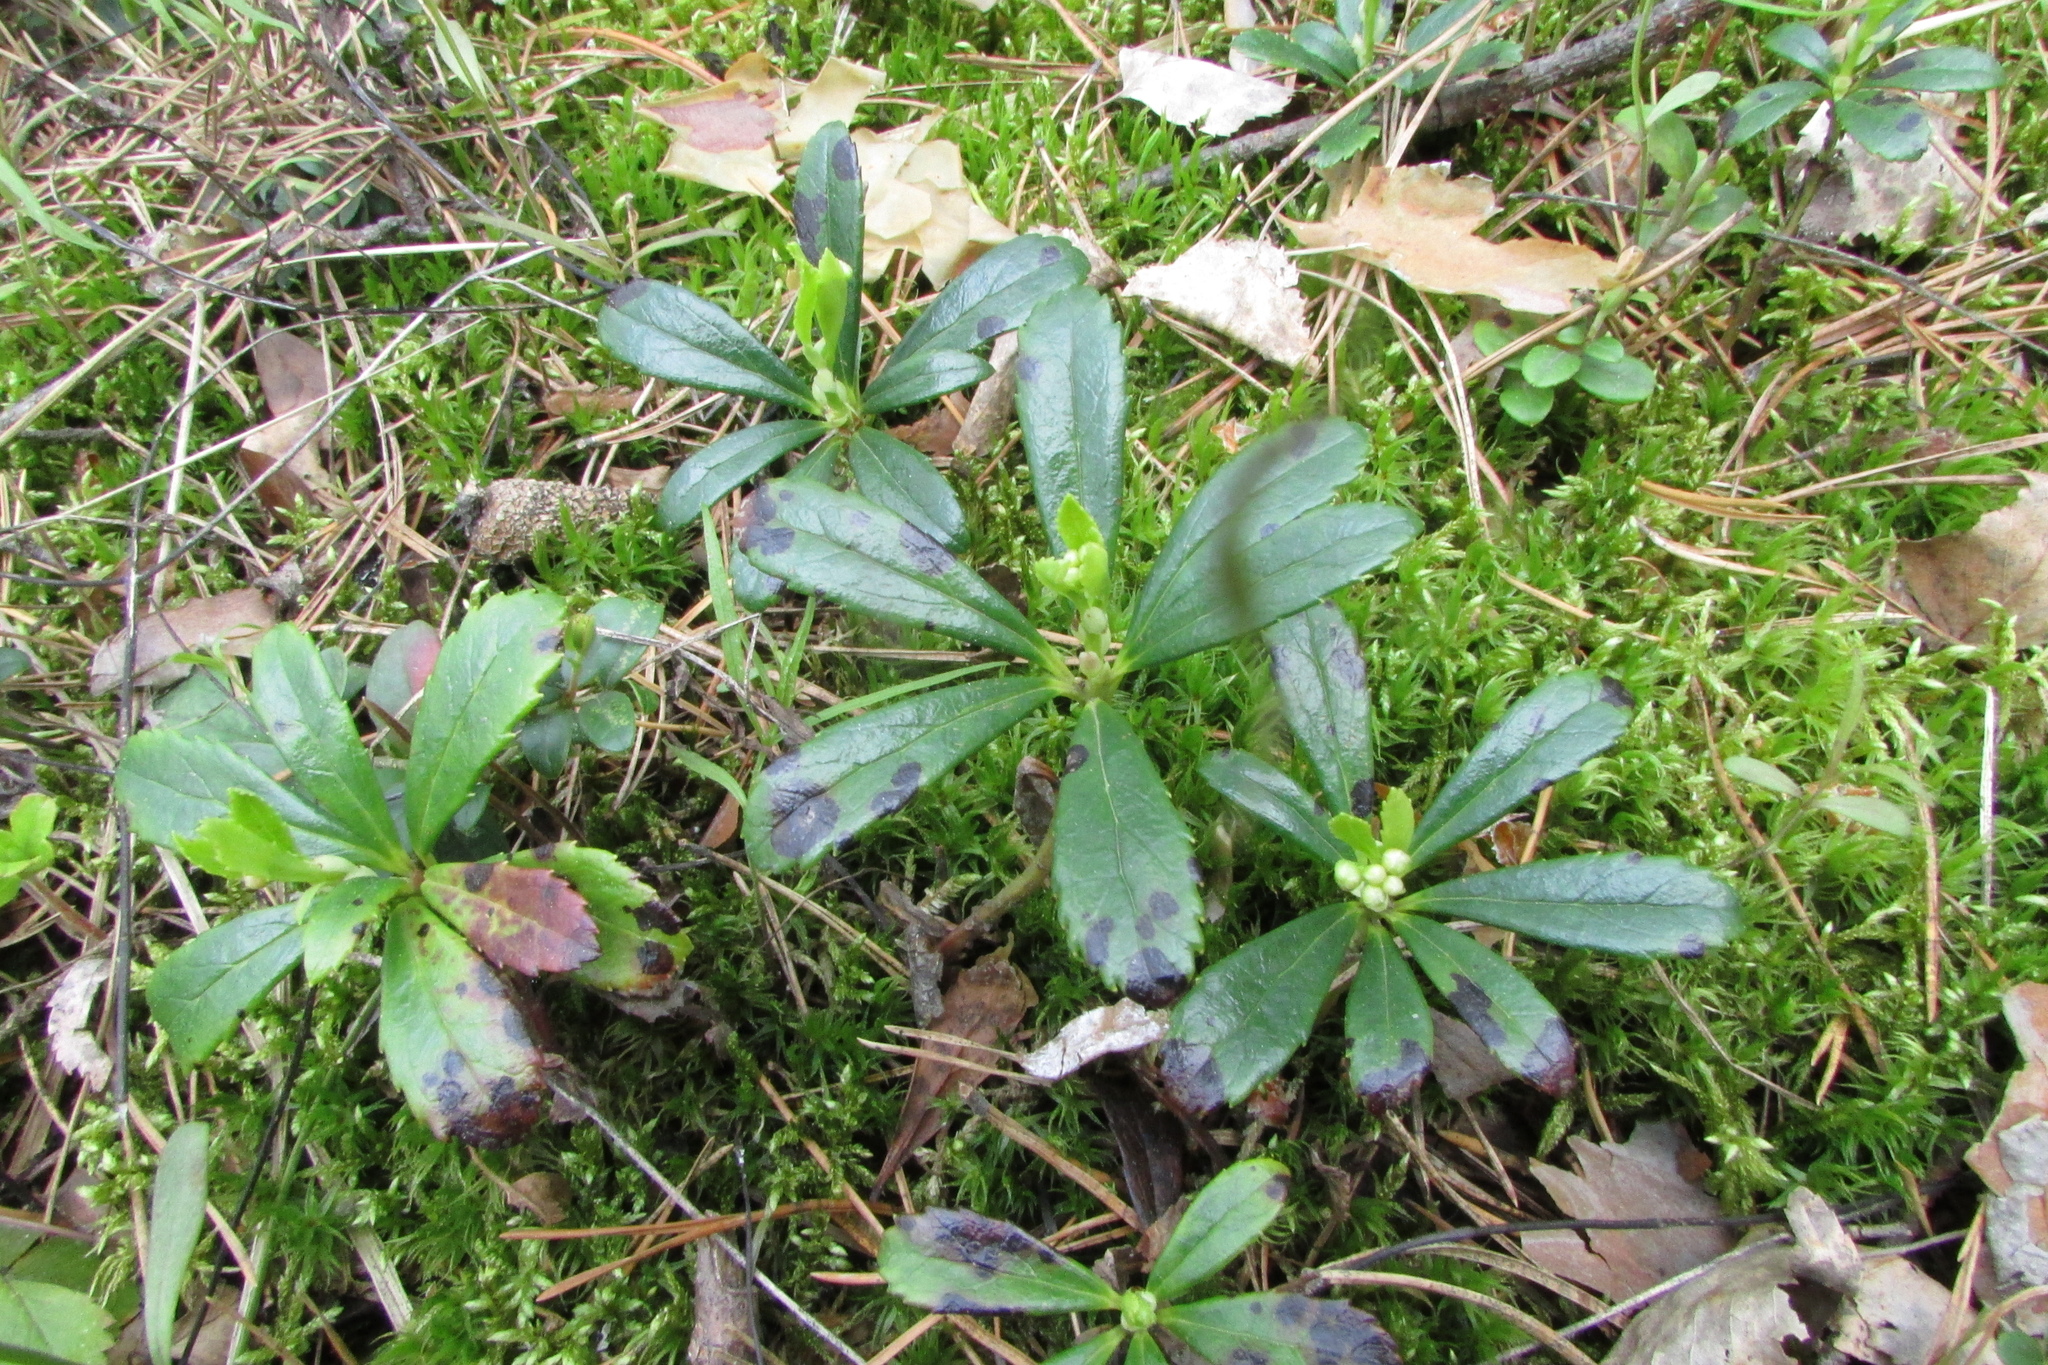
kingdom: Plantae
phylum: Tracheophyta
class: Magnoliopsida
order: Ericales
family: Ericaceae
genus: Chimaphila
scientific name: Chimaphila umbellata
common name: Pipsissewa
